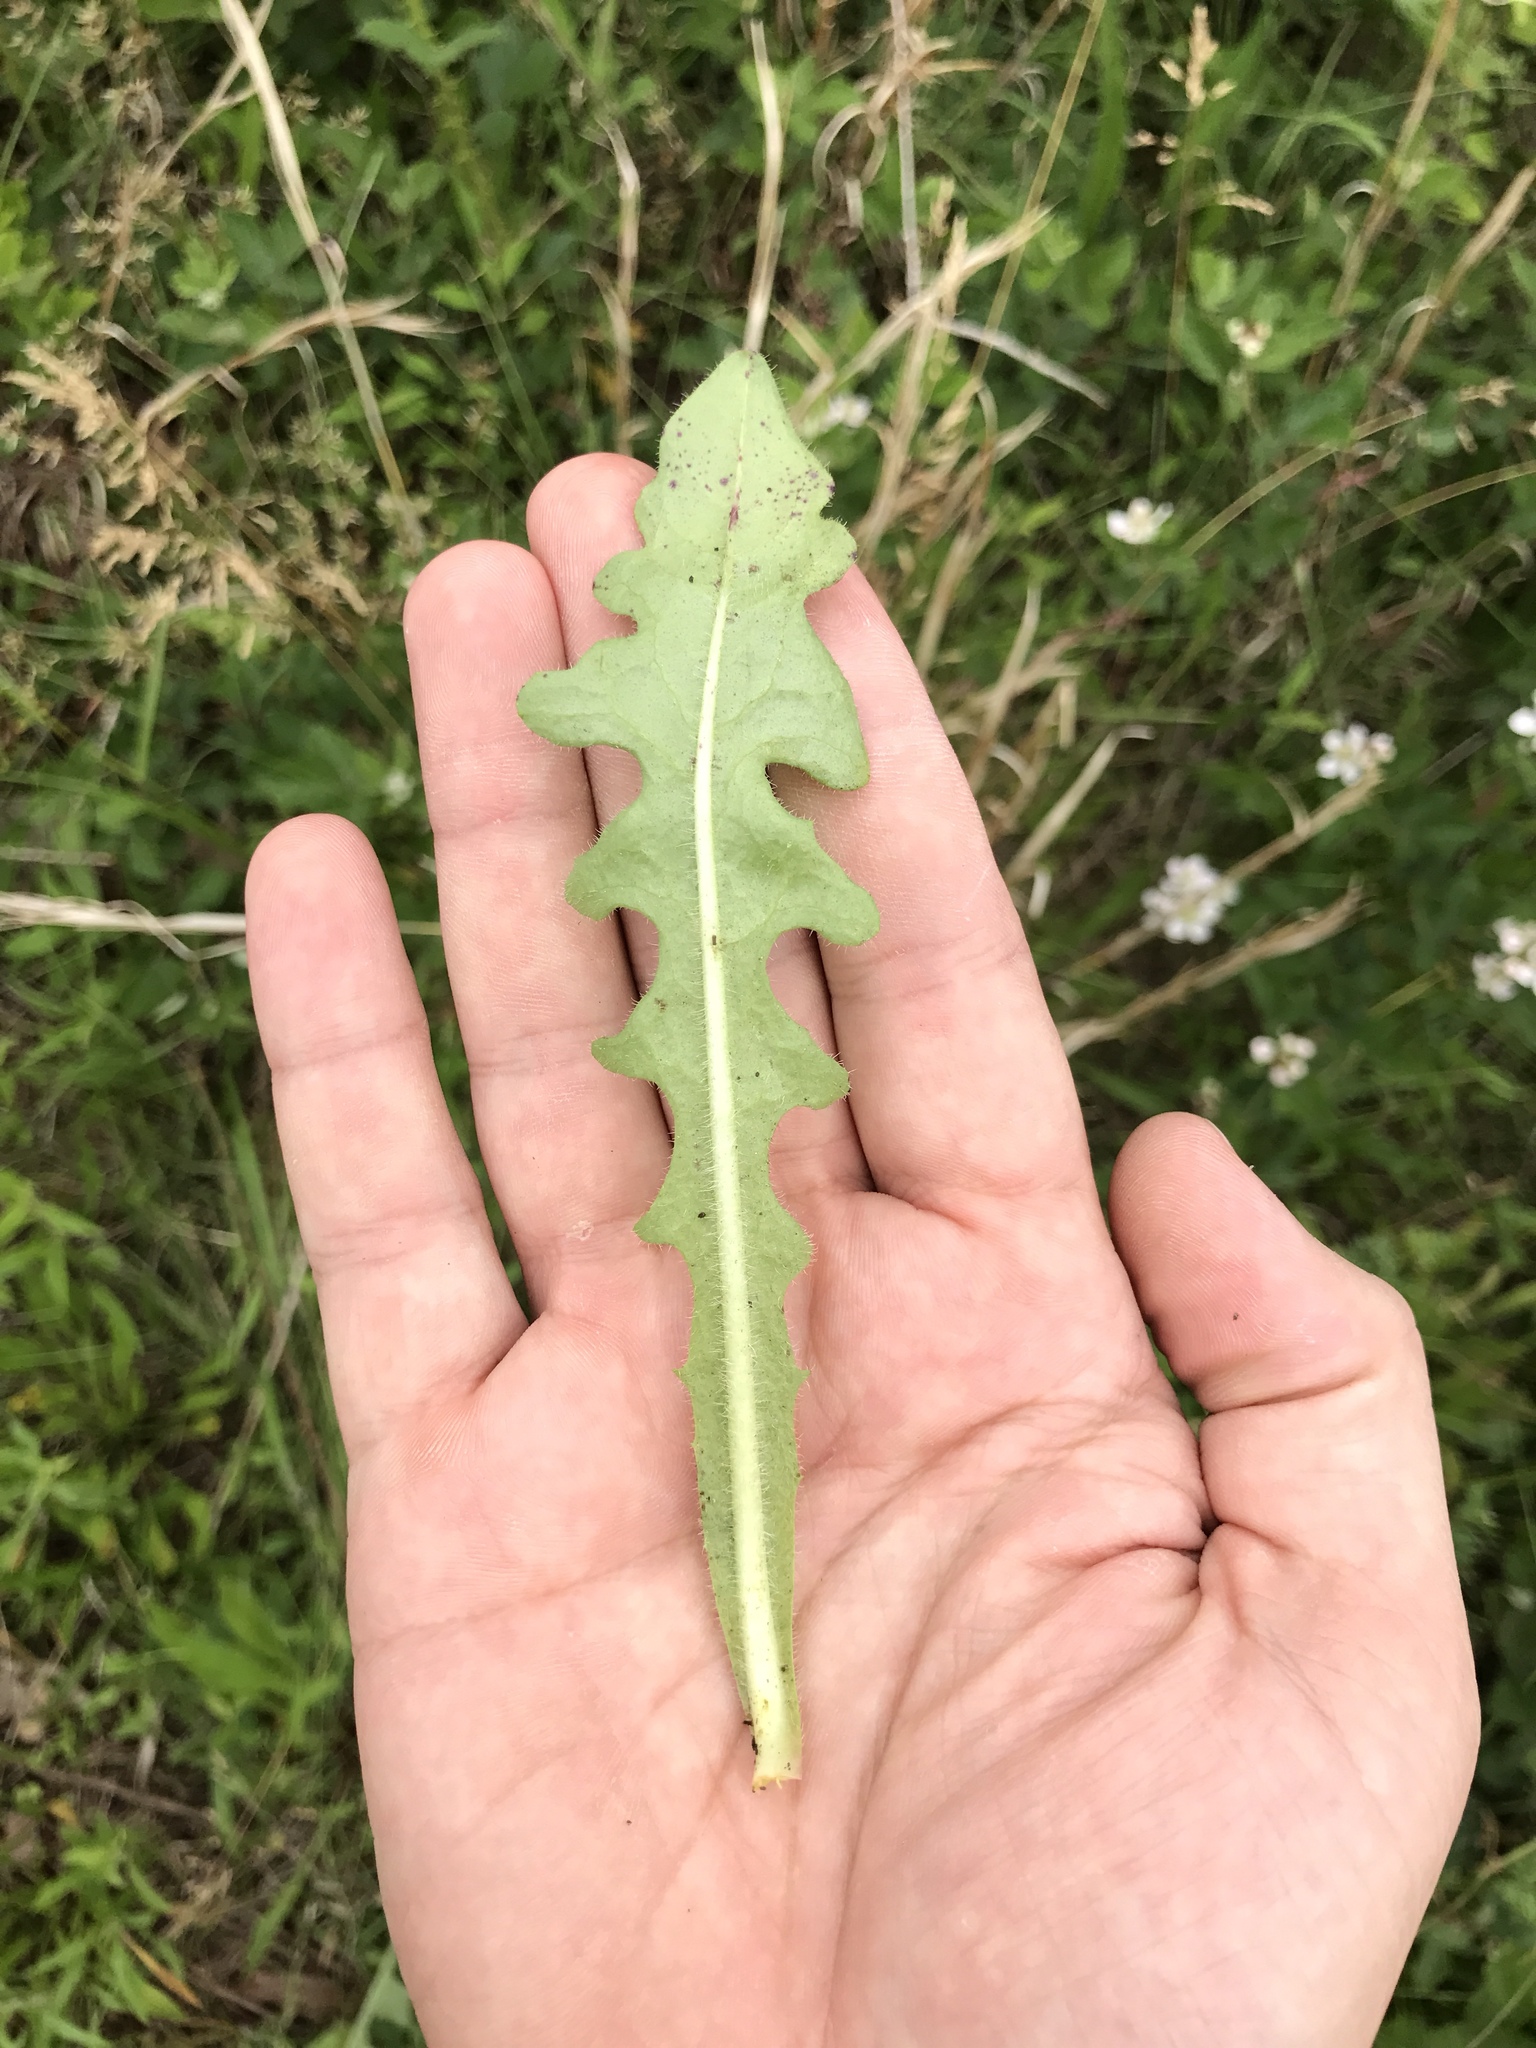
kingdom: Plantae
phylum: Tracheophyta
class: Magnoliopsida
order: Asterales
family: Asteraceae
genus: Hypochaeris
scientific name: Hypochaeris radicata
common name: Flatweed
